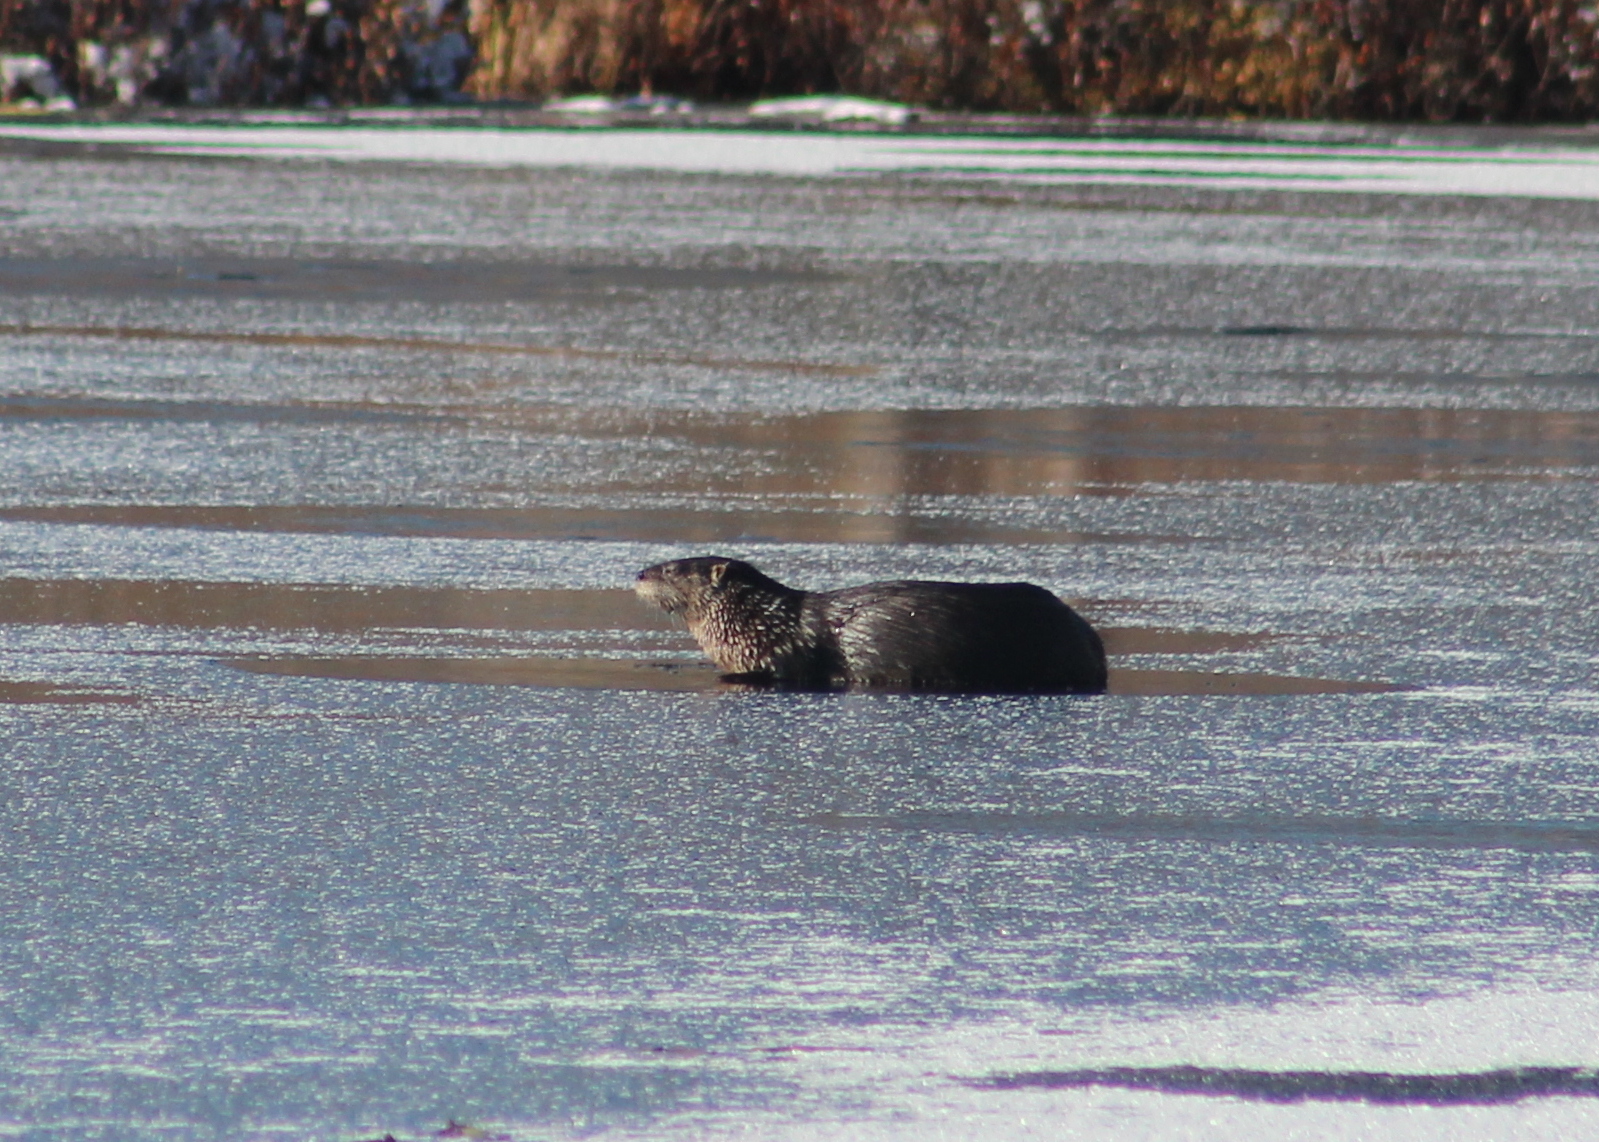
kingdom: Animalia
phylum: Chordata
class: Mammalia
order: Carnivora
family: Mustelidae
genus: Lontra
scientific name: Lontra canadensis
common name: North american river otter
